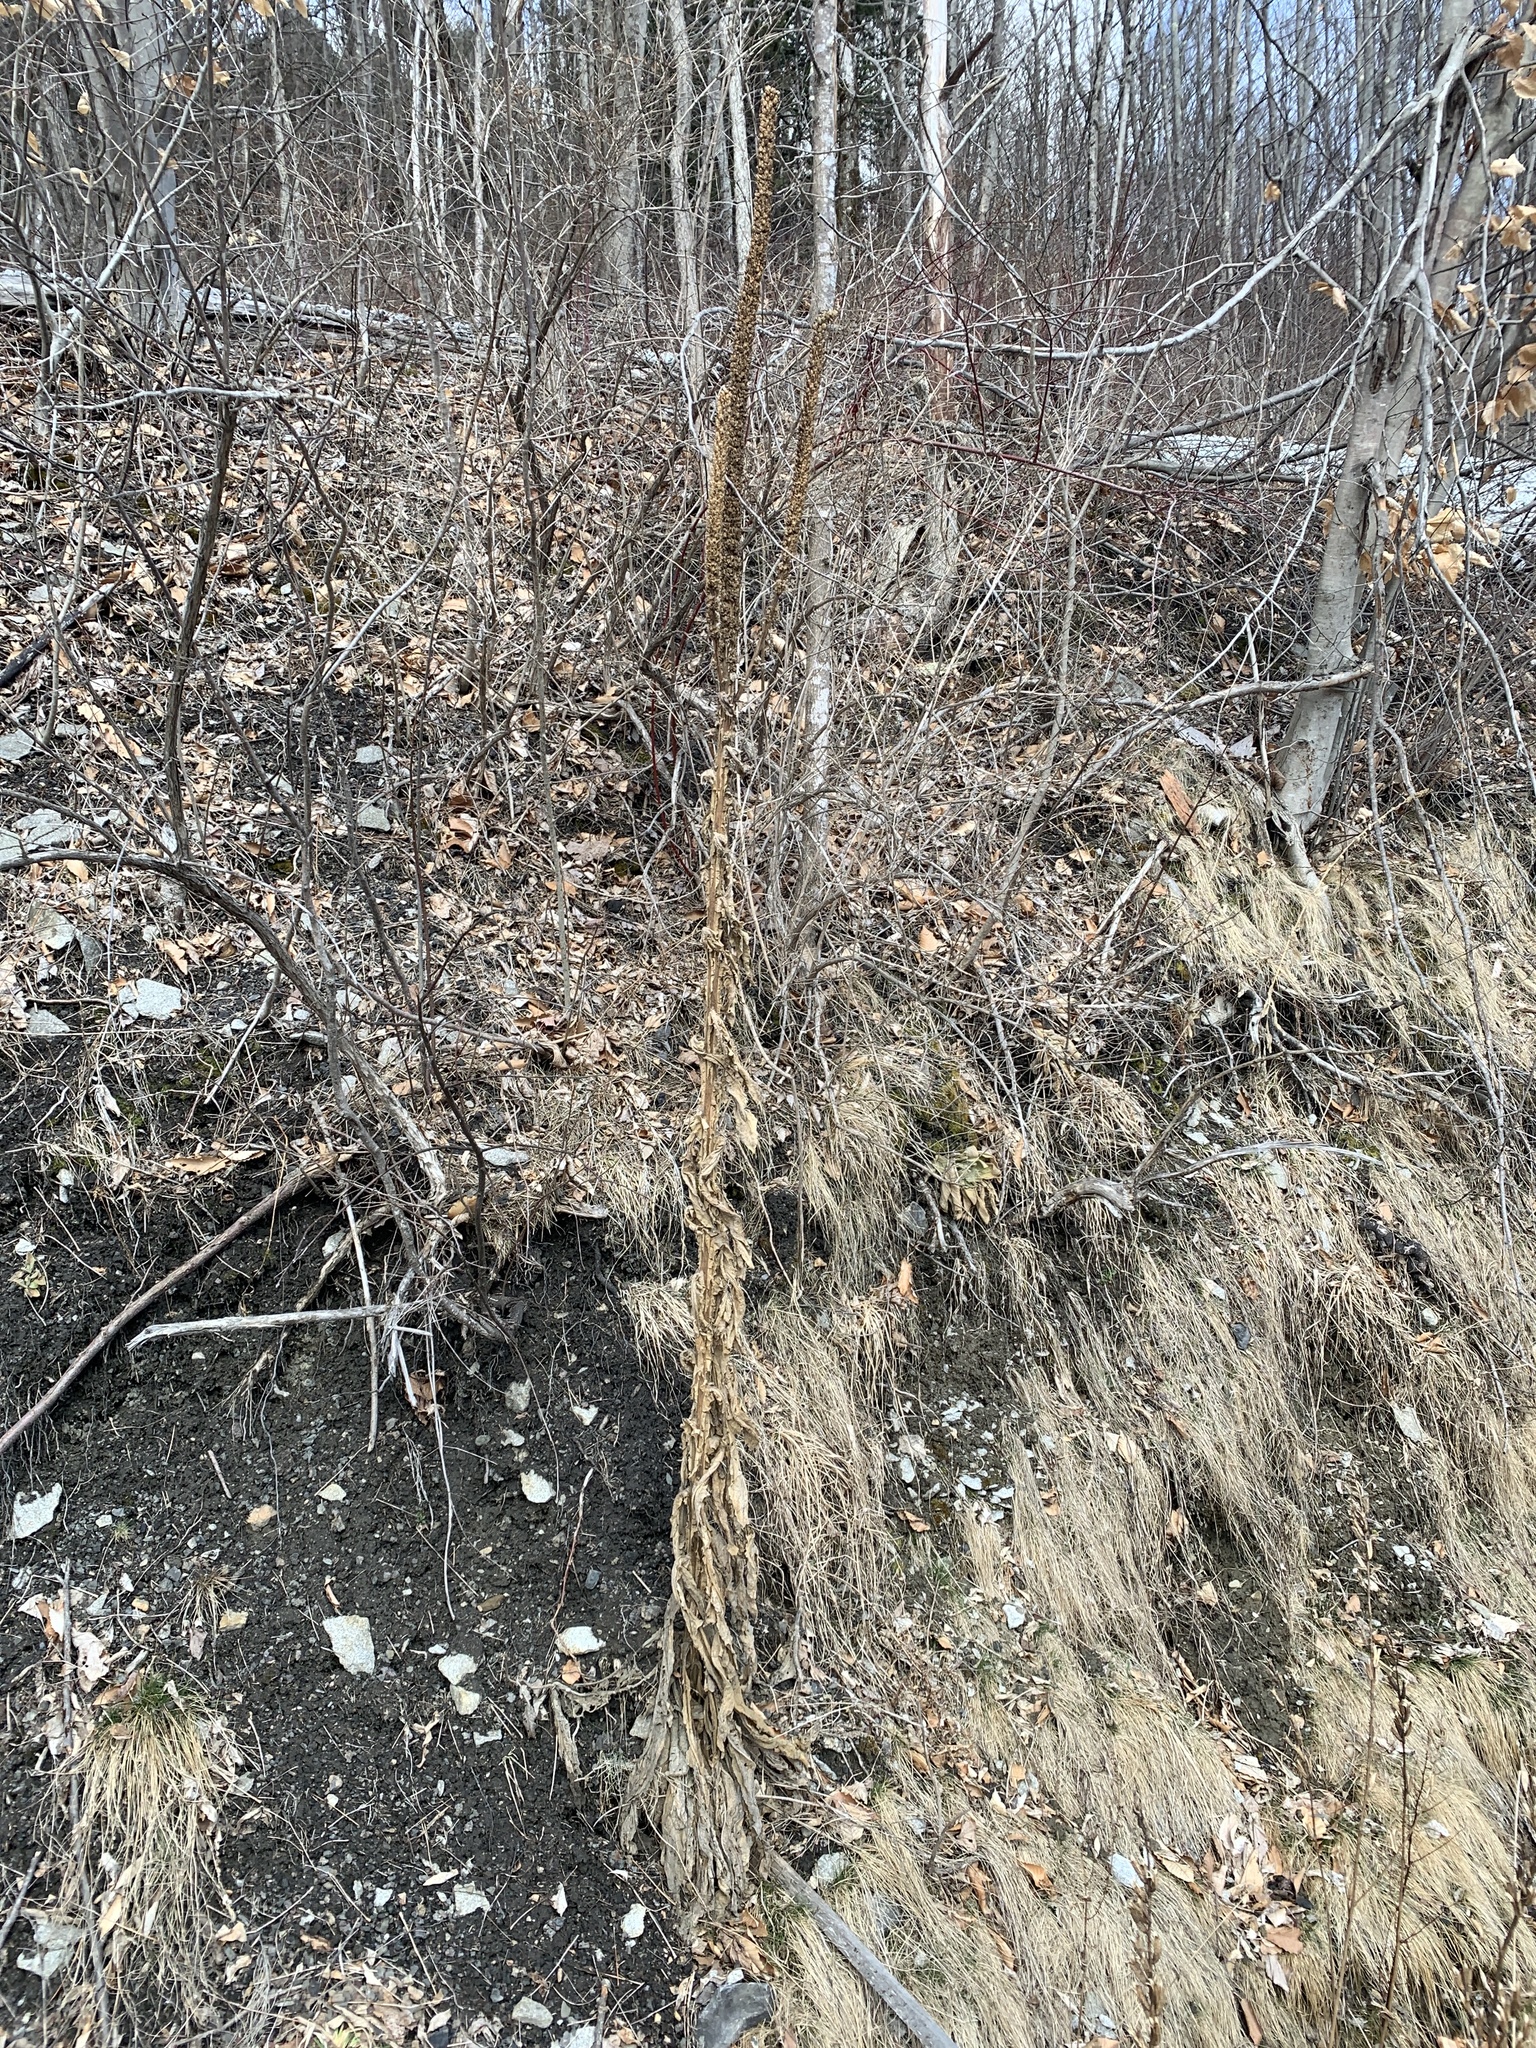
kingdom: Plantae
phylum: Tracheophyta
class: Magnoliopsida
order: Lamiales
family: Scrophulariaceae
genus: Verbascum
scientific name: Verbascum thapsus
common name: Common mullein
